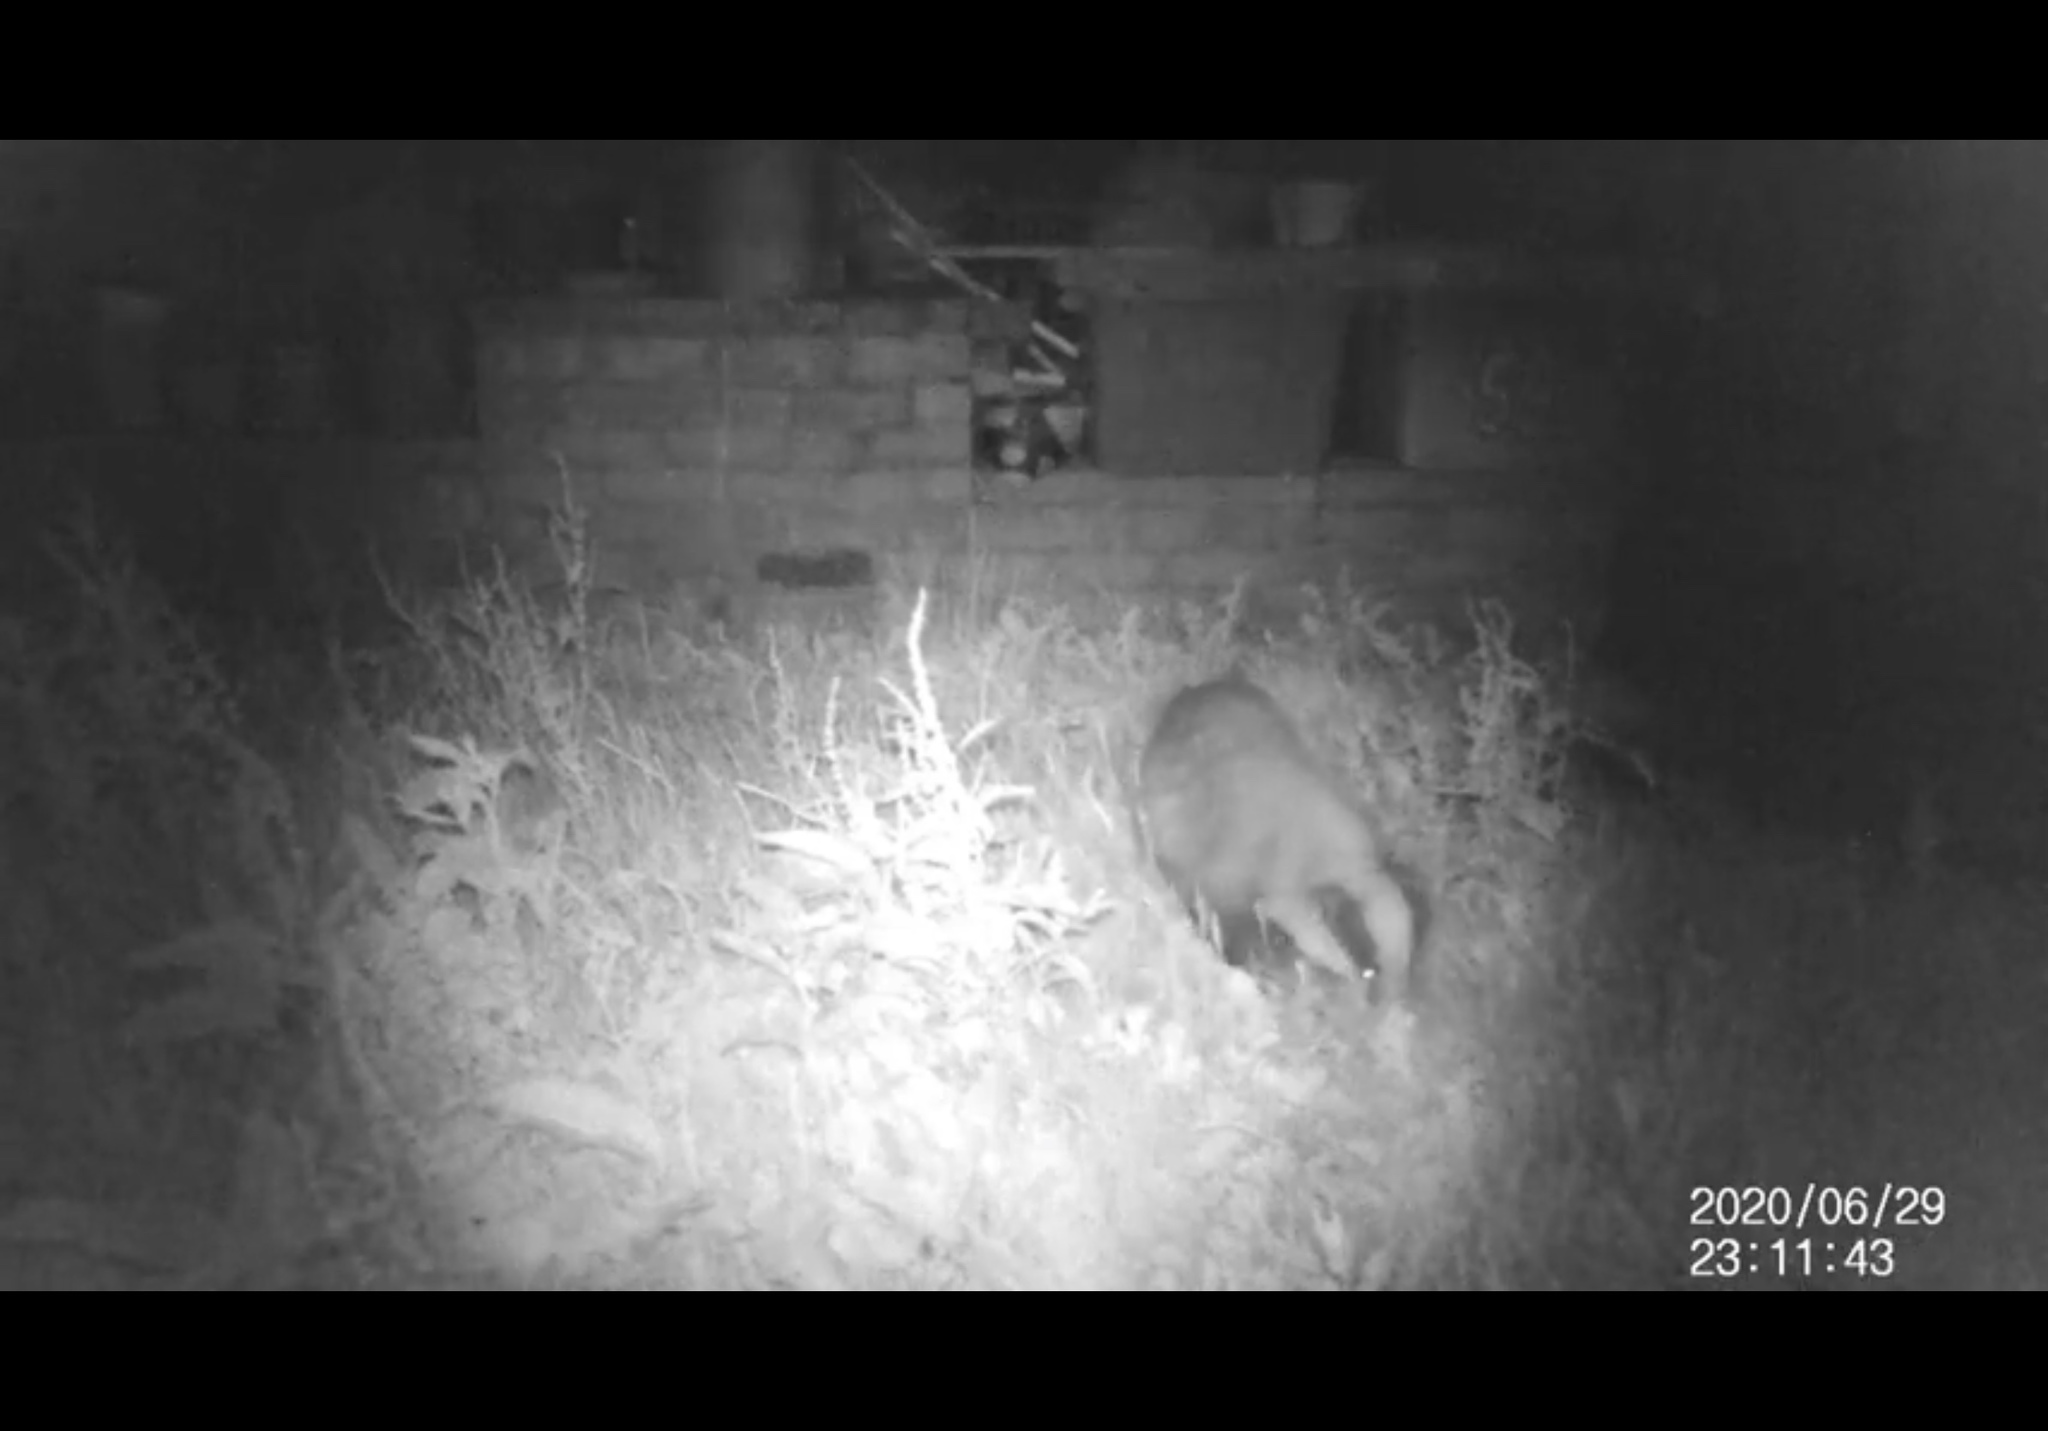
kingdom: Animalia
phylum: Chordata
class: Mammalia
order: Carnivora
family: Mustelidae
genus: Meles
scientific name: Meles meles
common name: Eurasian badger
